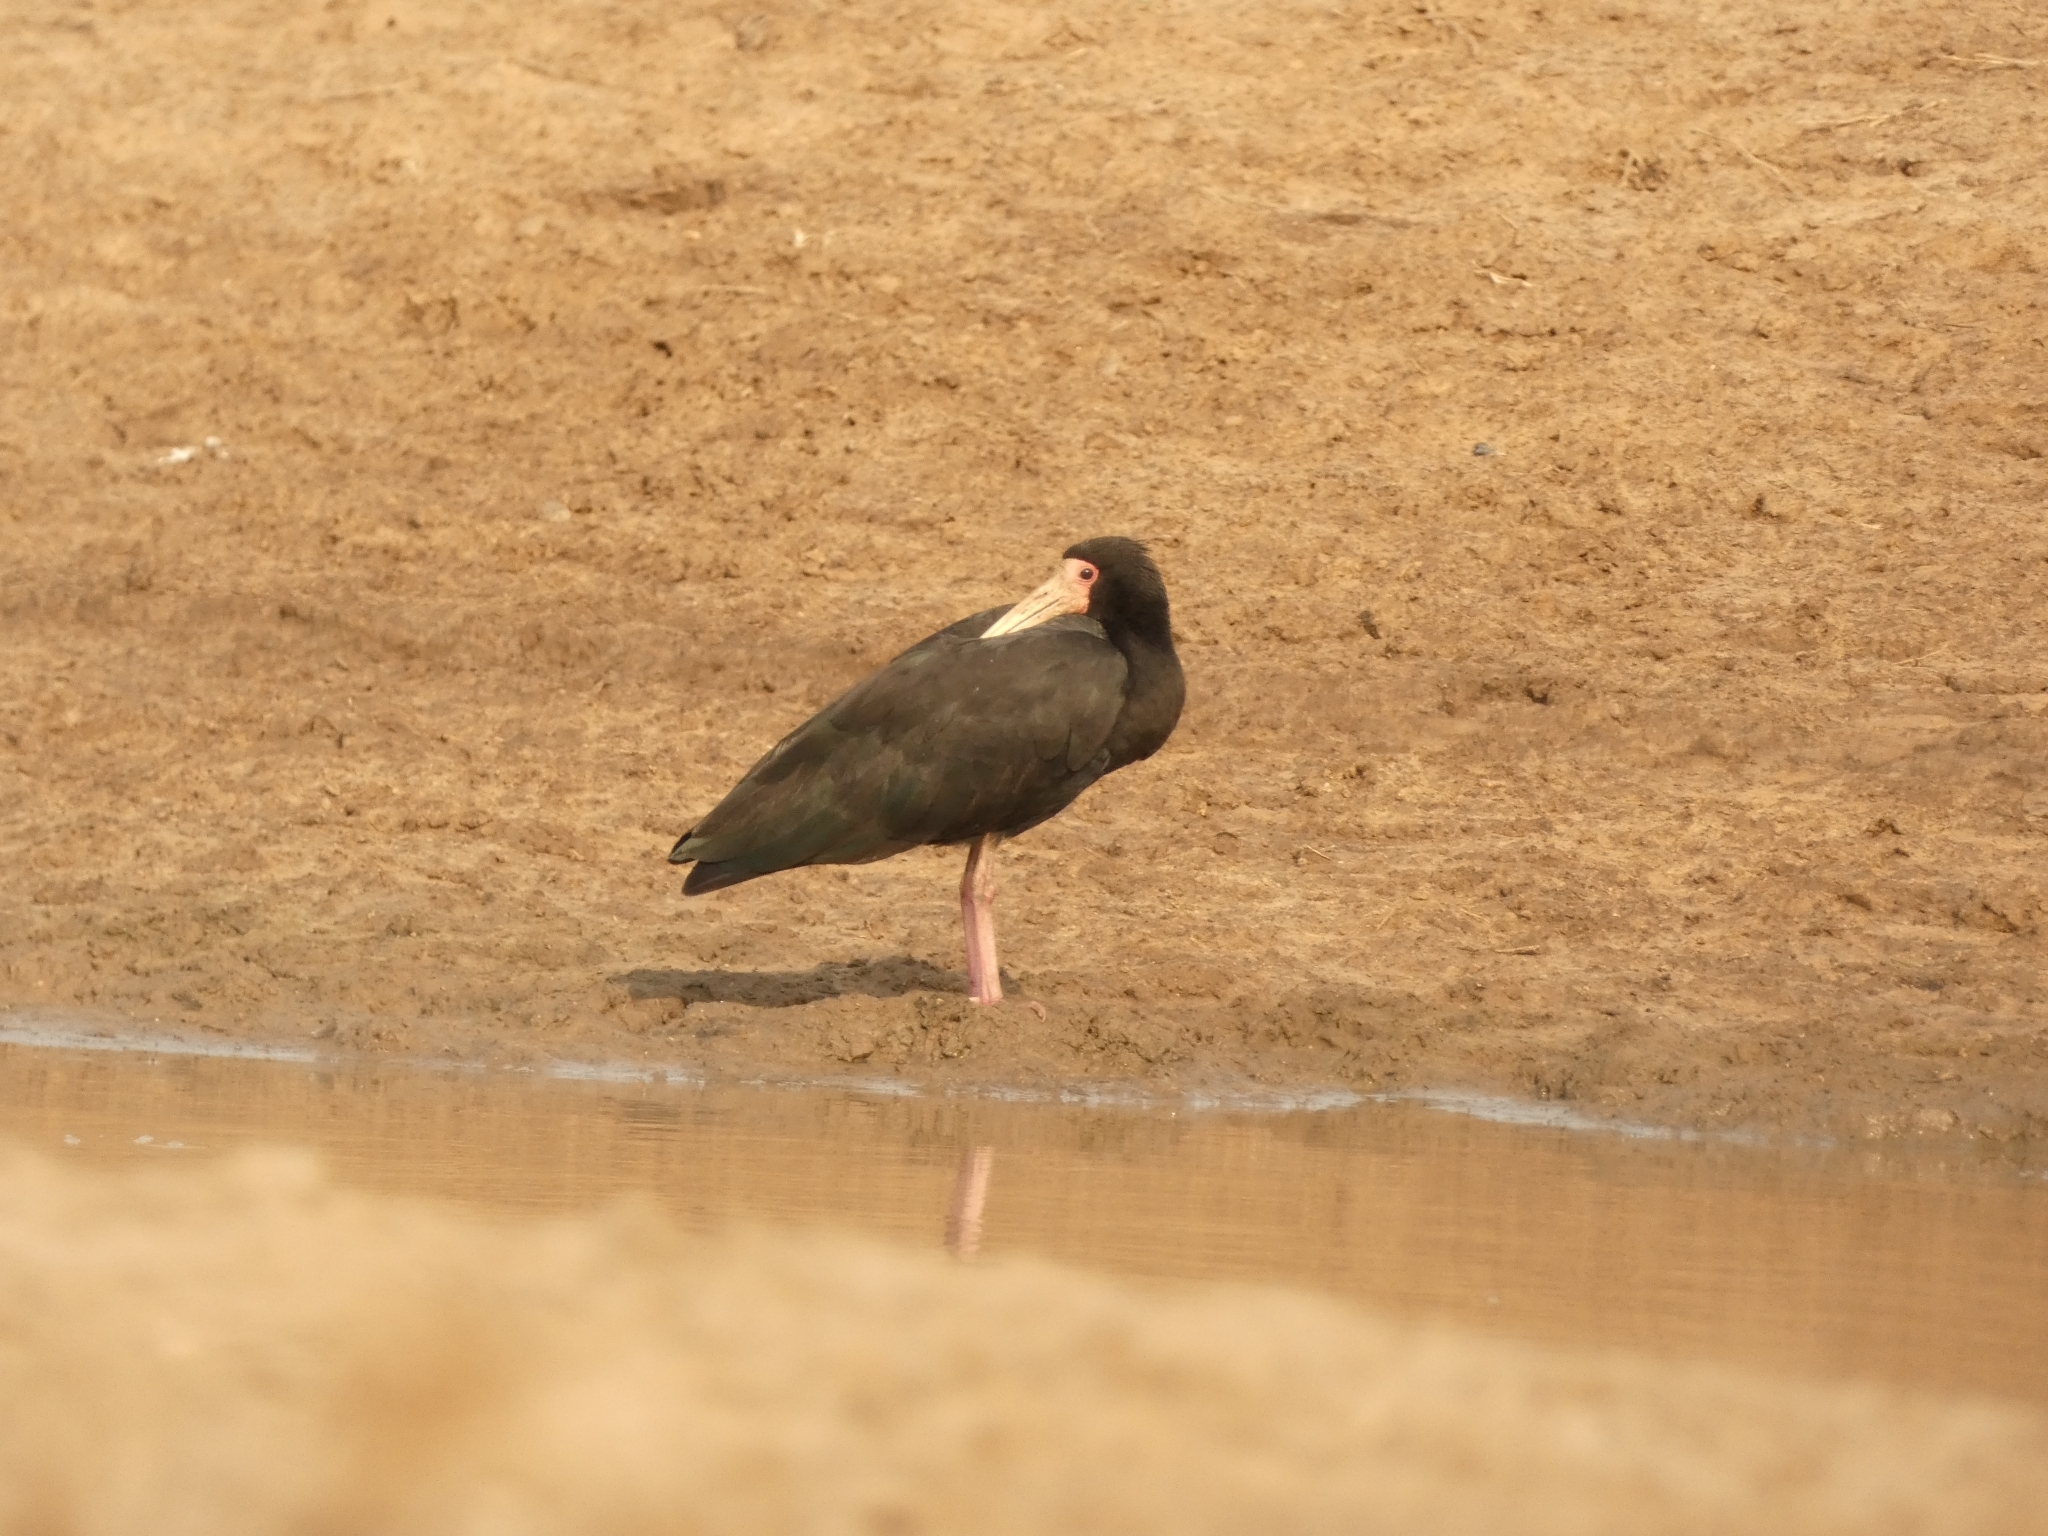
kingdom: Animalia
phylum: Chordata
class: Aves
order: Pelecaniformes
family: Threskiornithidae
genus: Phimosus
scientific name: Phimosus infuscatus
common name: Bare-faced ibis
